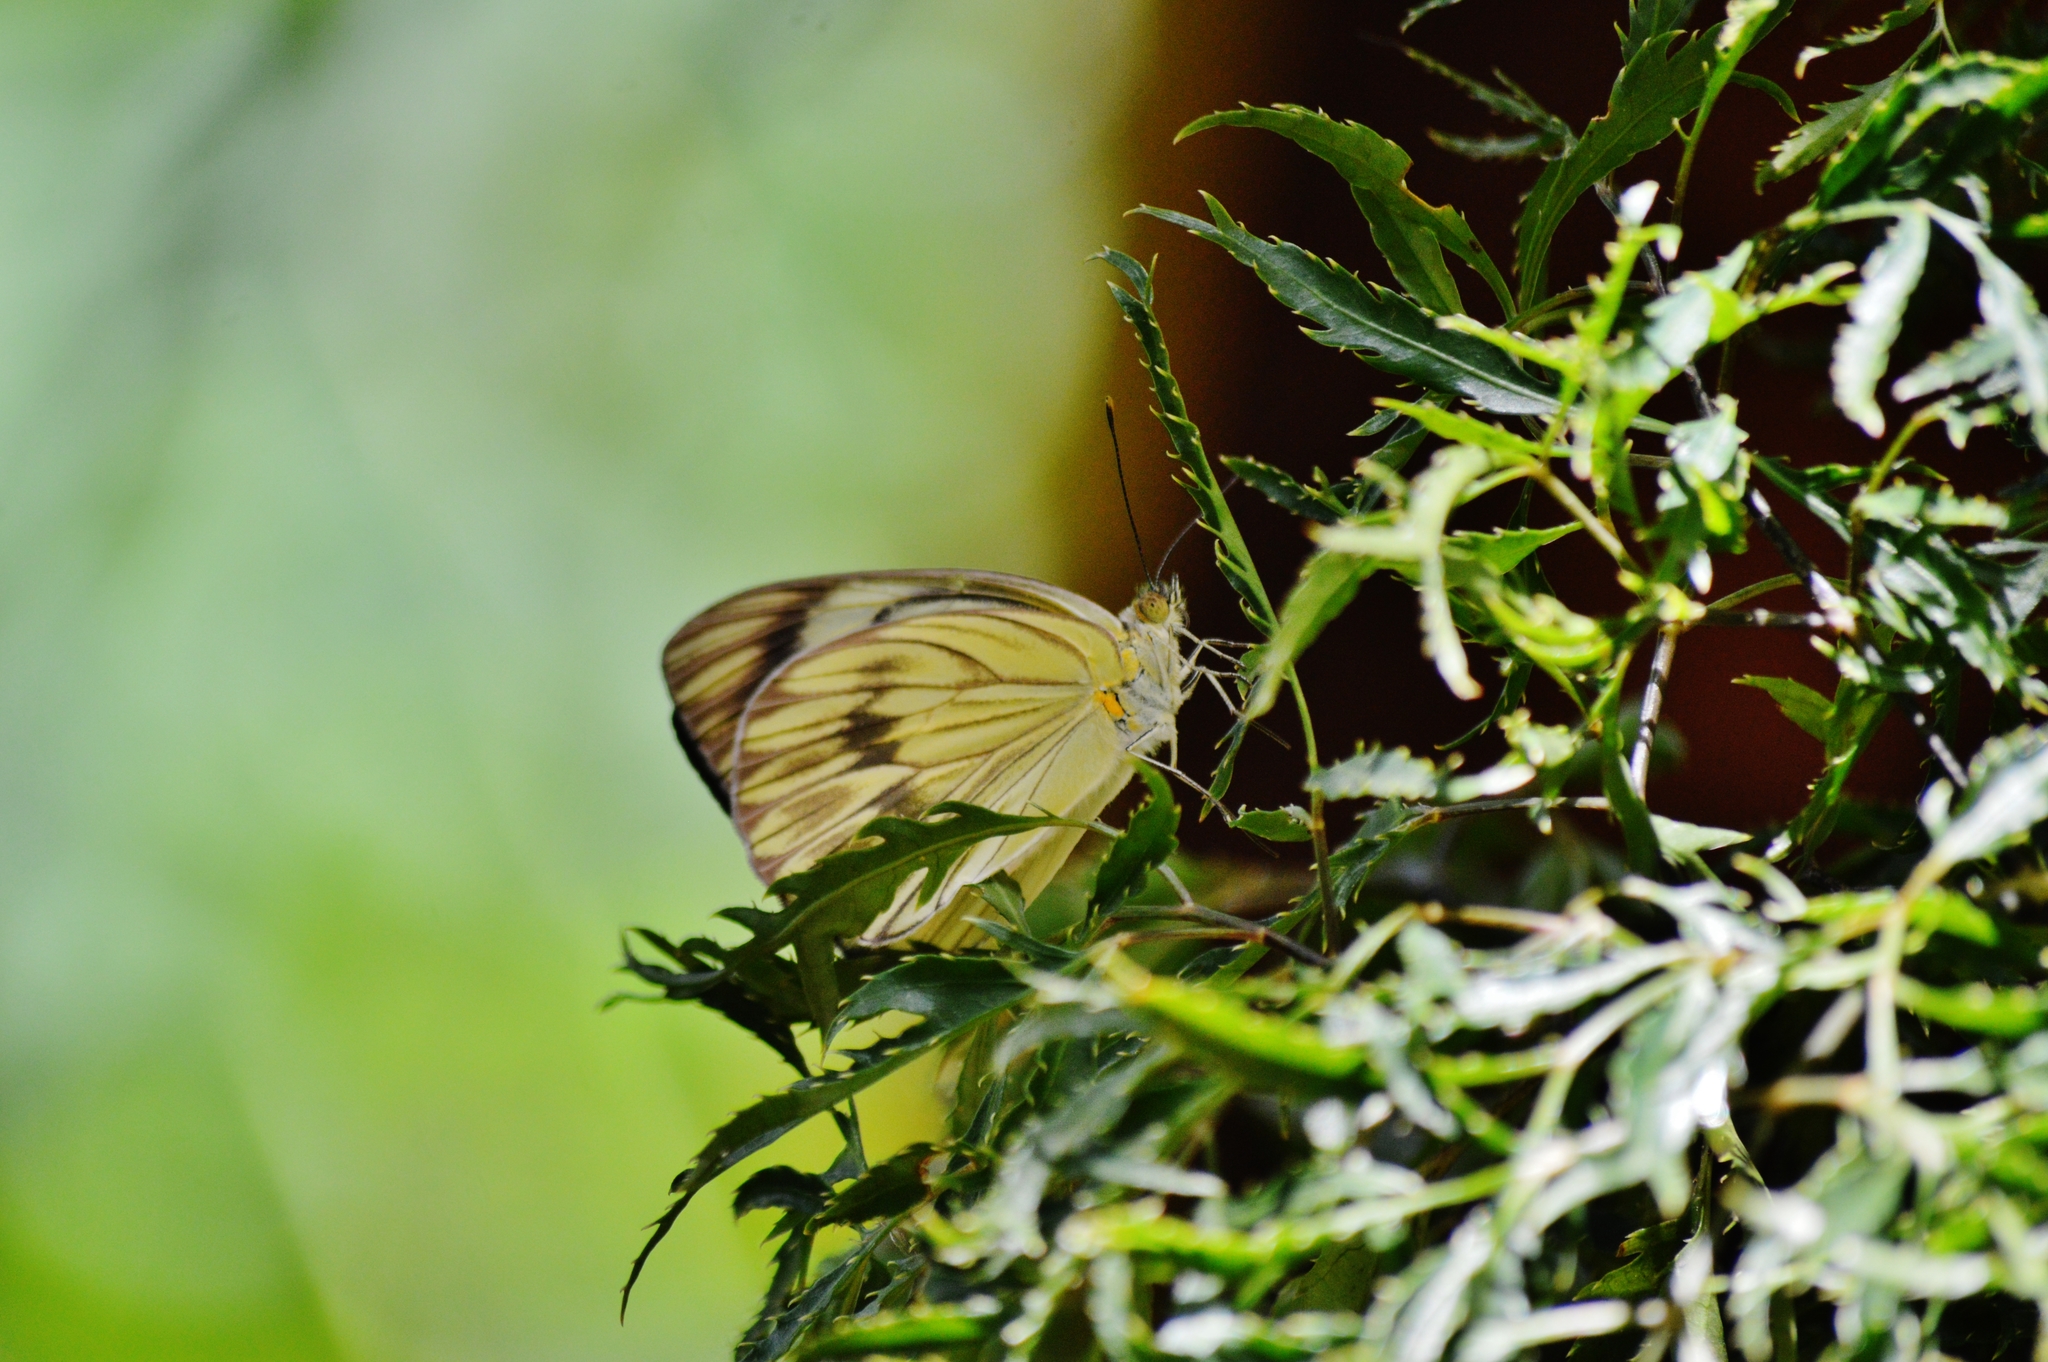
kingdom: Animalia
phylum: Arthropoda
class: Insecta
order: Lepidoptera
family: Pieridae
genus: Ascia
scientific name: Ascia monuste
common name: Great southern white
